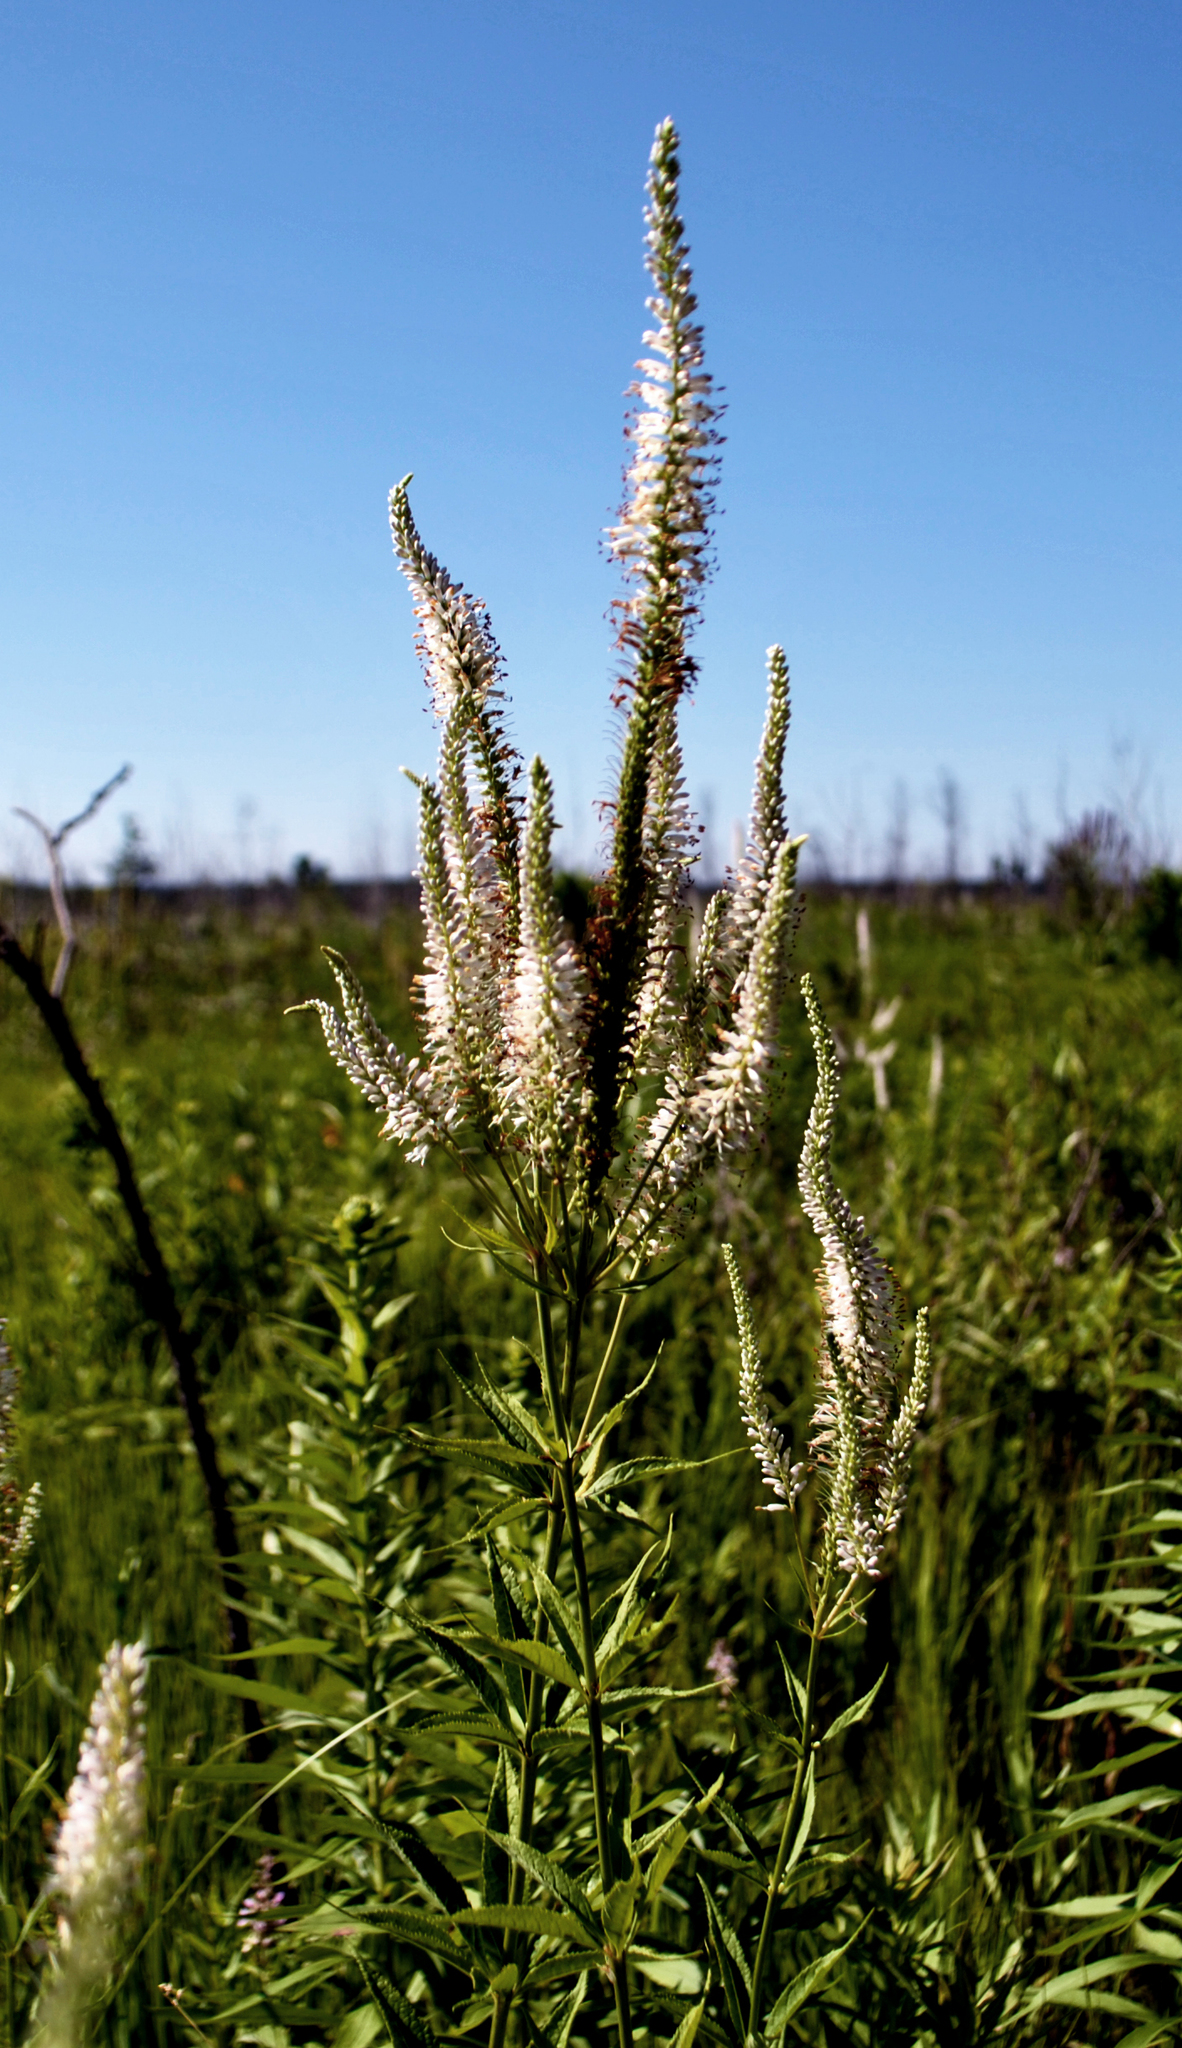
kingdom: Plantae
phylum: Tracheophyta
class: Magnoliopsida
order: Lamiales
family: Plantaginaceae
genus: Veronicastrum
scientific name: Veronicastrum virginicum
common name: Blackroot
